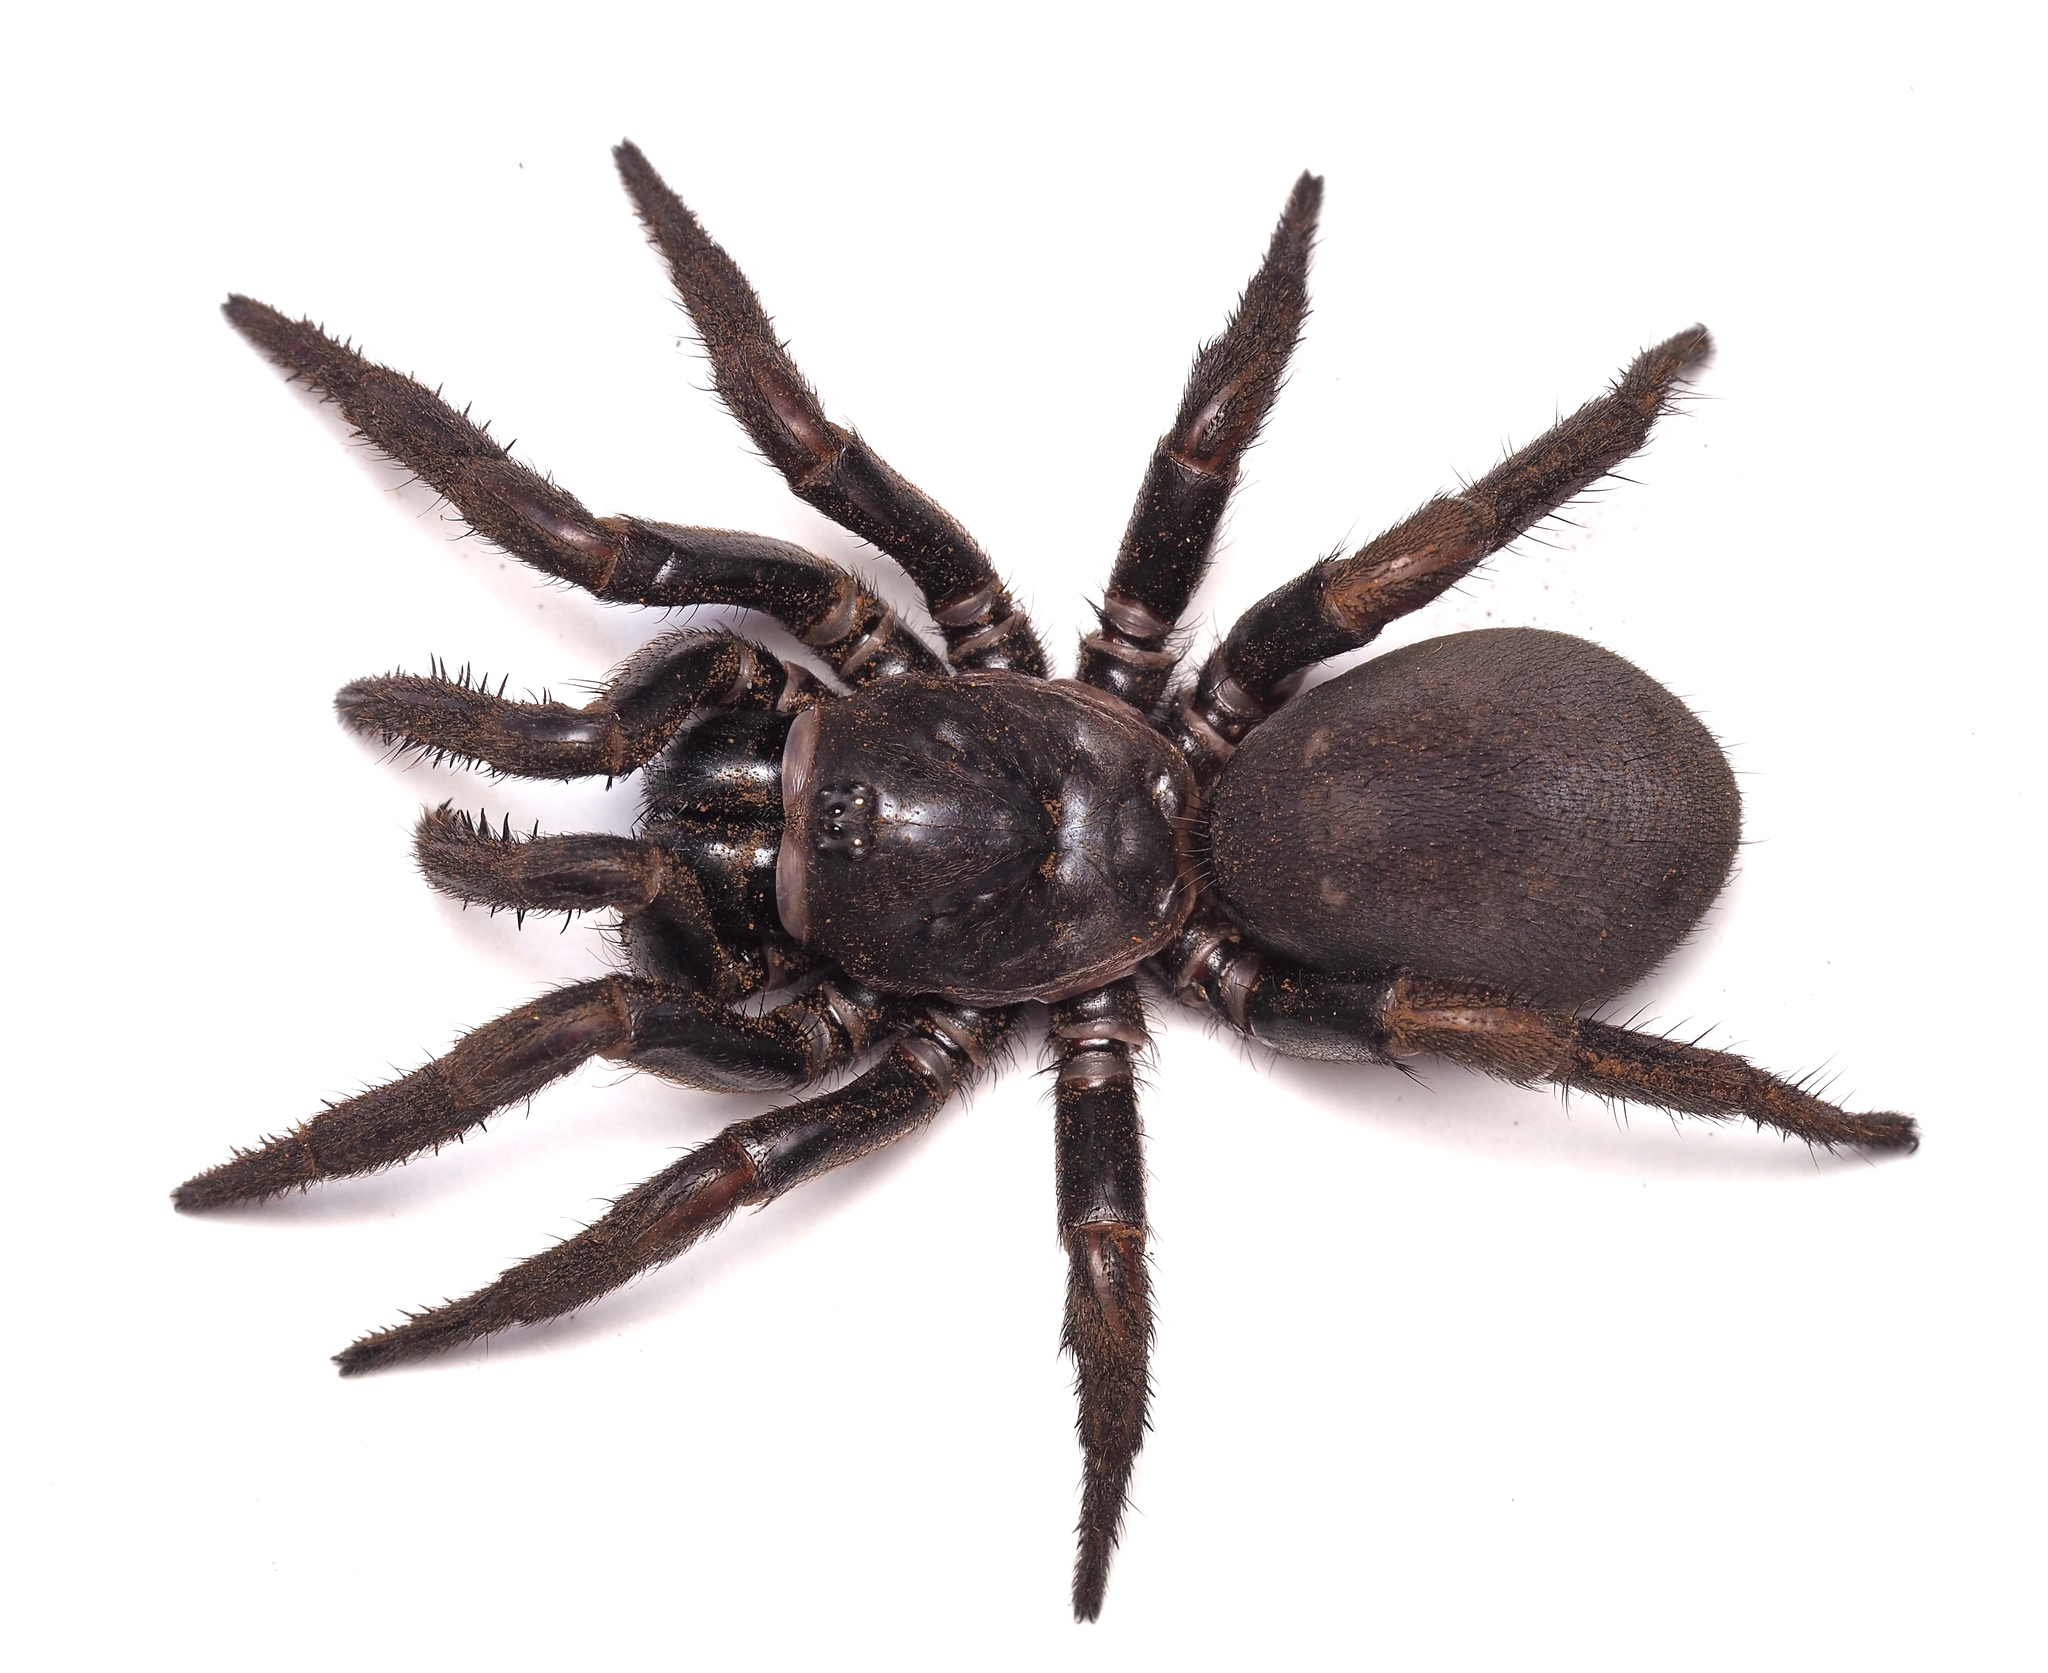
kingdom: Animalia
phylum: Arthropoda
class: Arachnida
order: Araneae
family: Idiopidae
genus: Cataxia
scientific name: Cataxia spinipectoris
